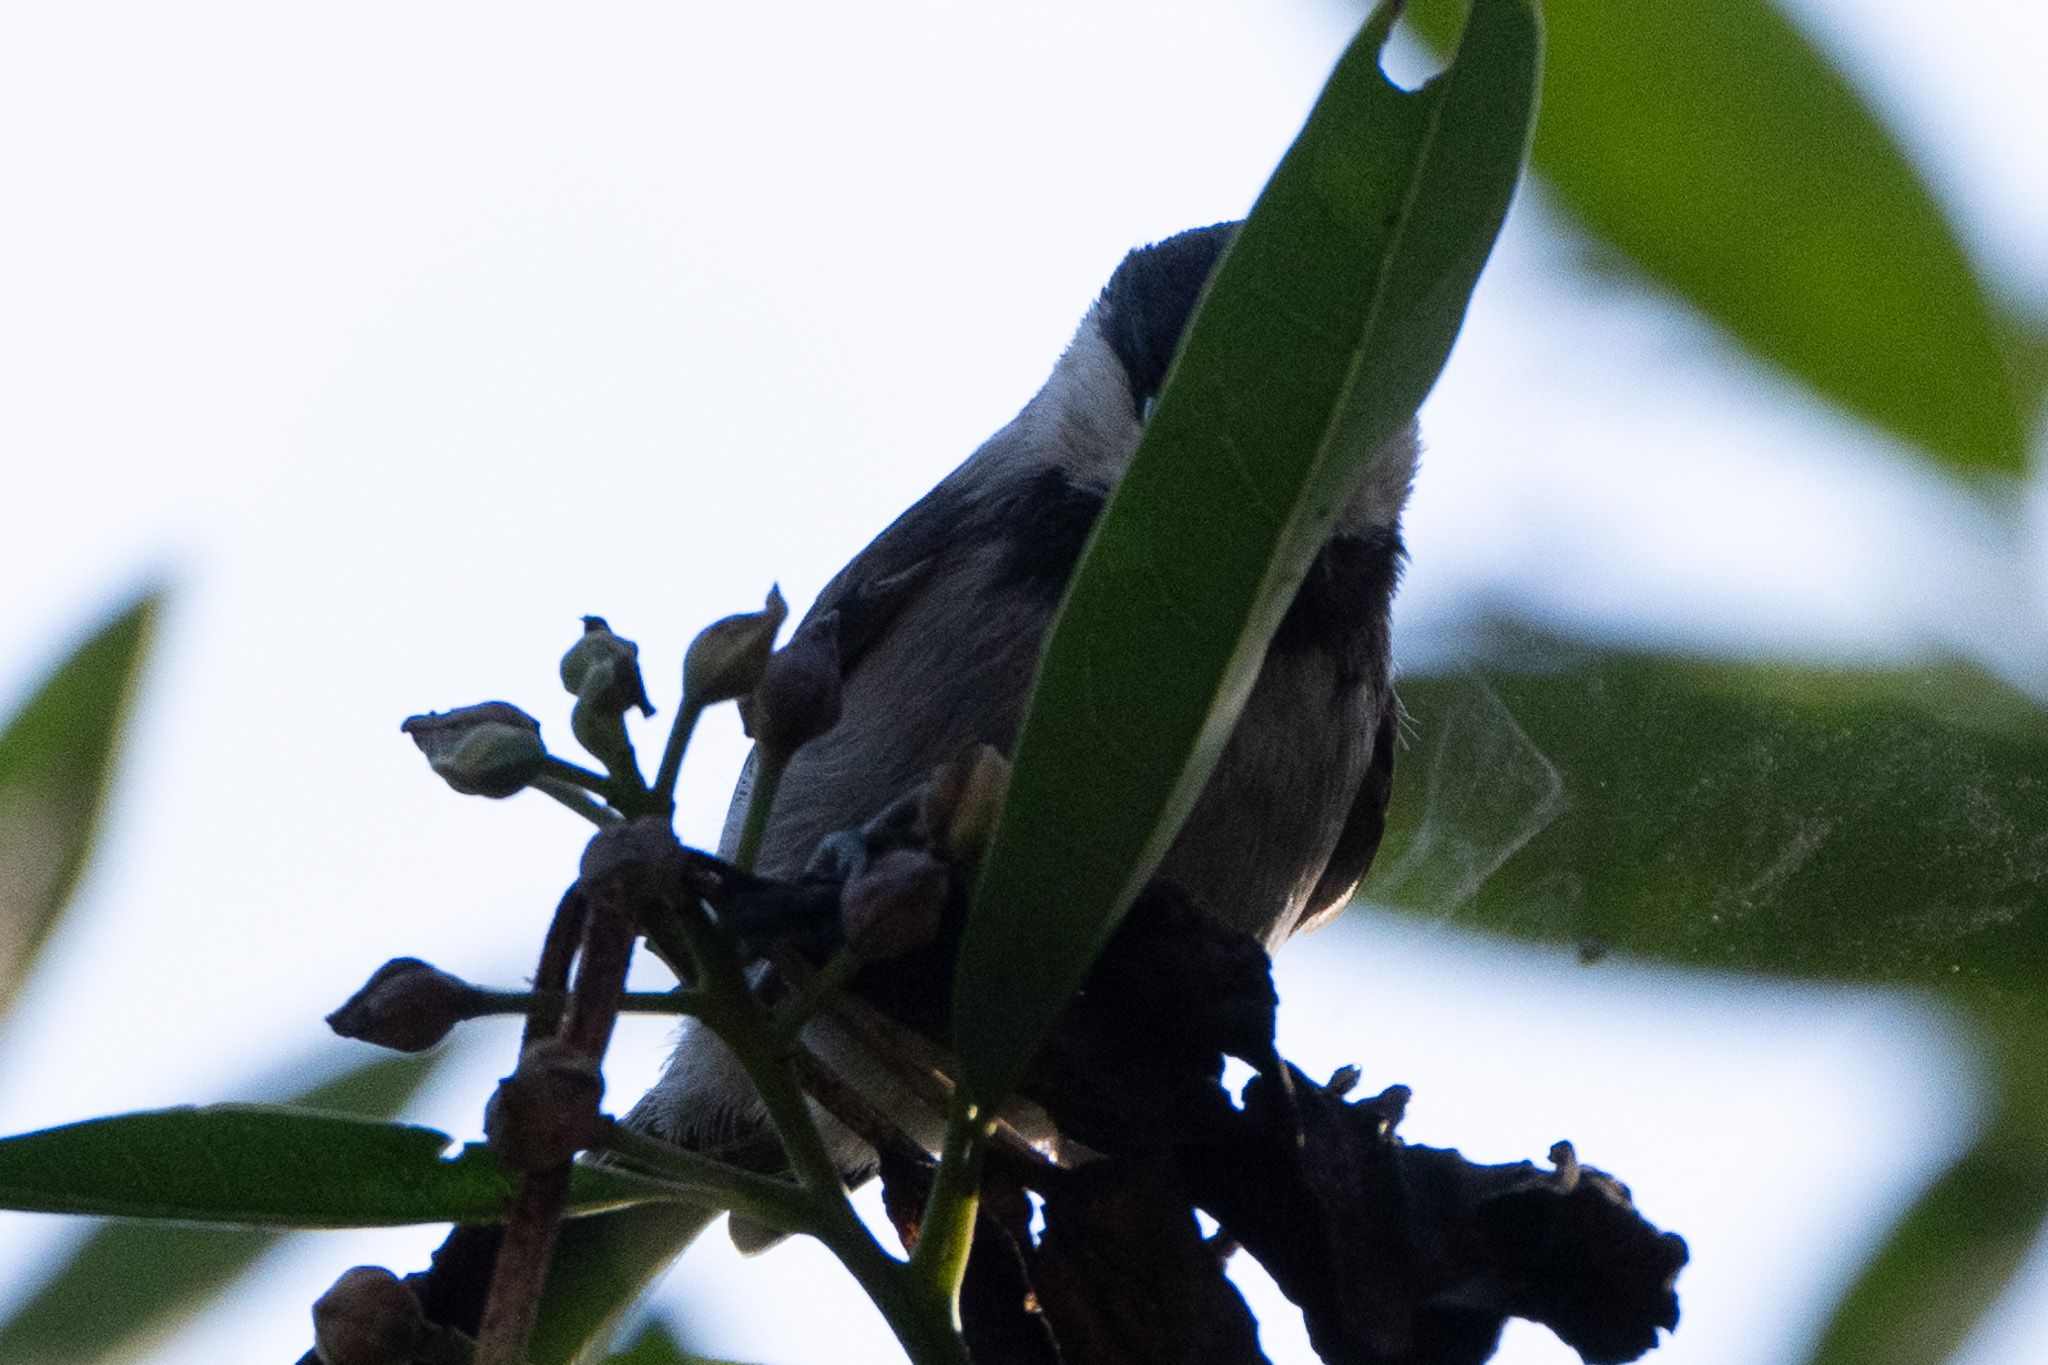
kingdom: Animalia
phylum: Chordata
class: Aves
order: Passeriformes
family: Paridae
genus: Poecile
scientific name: Poecile rufescens
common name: Chestnut-backed chickadee
